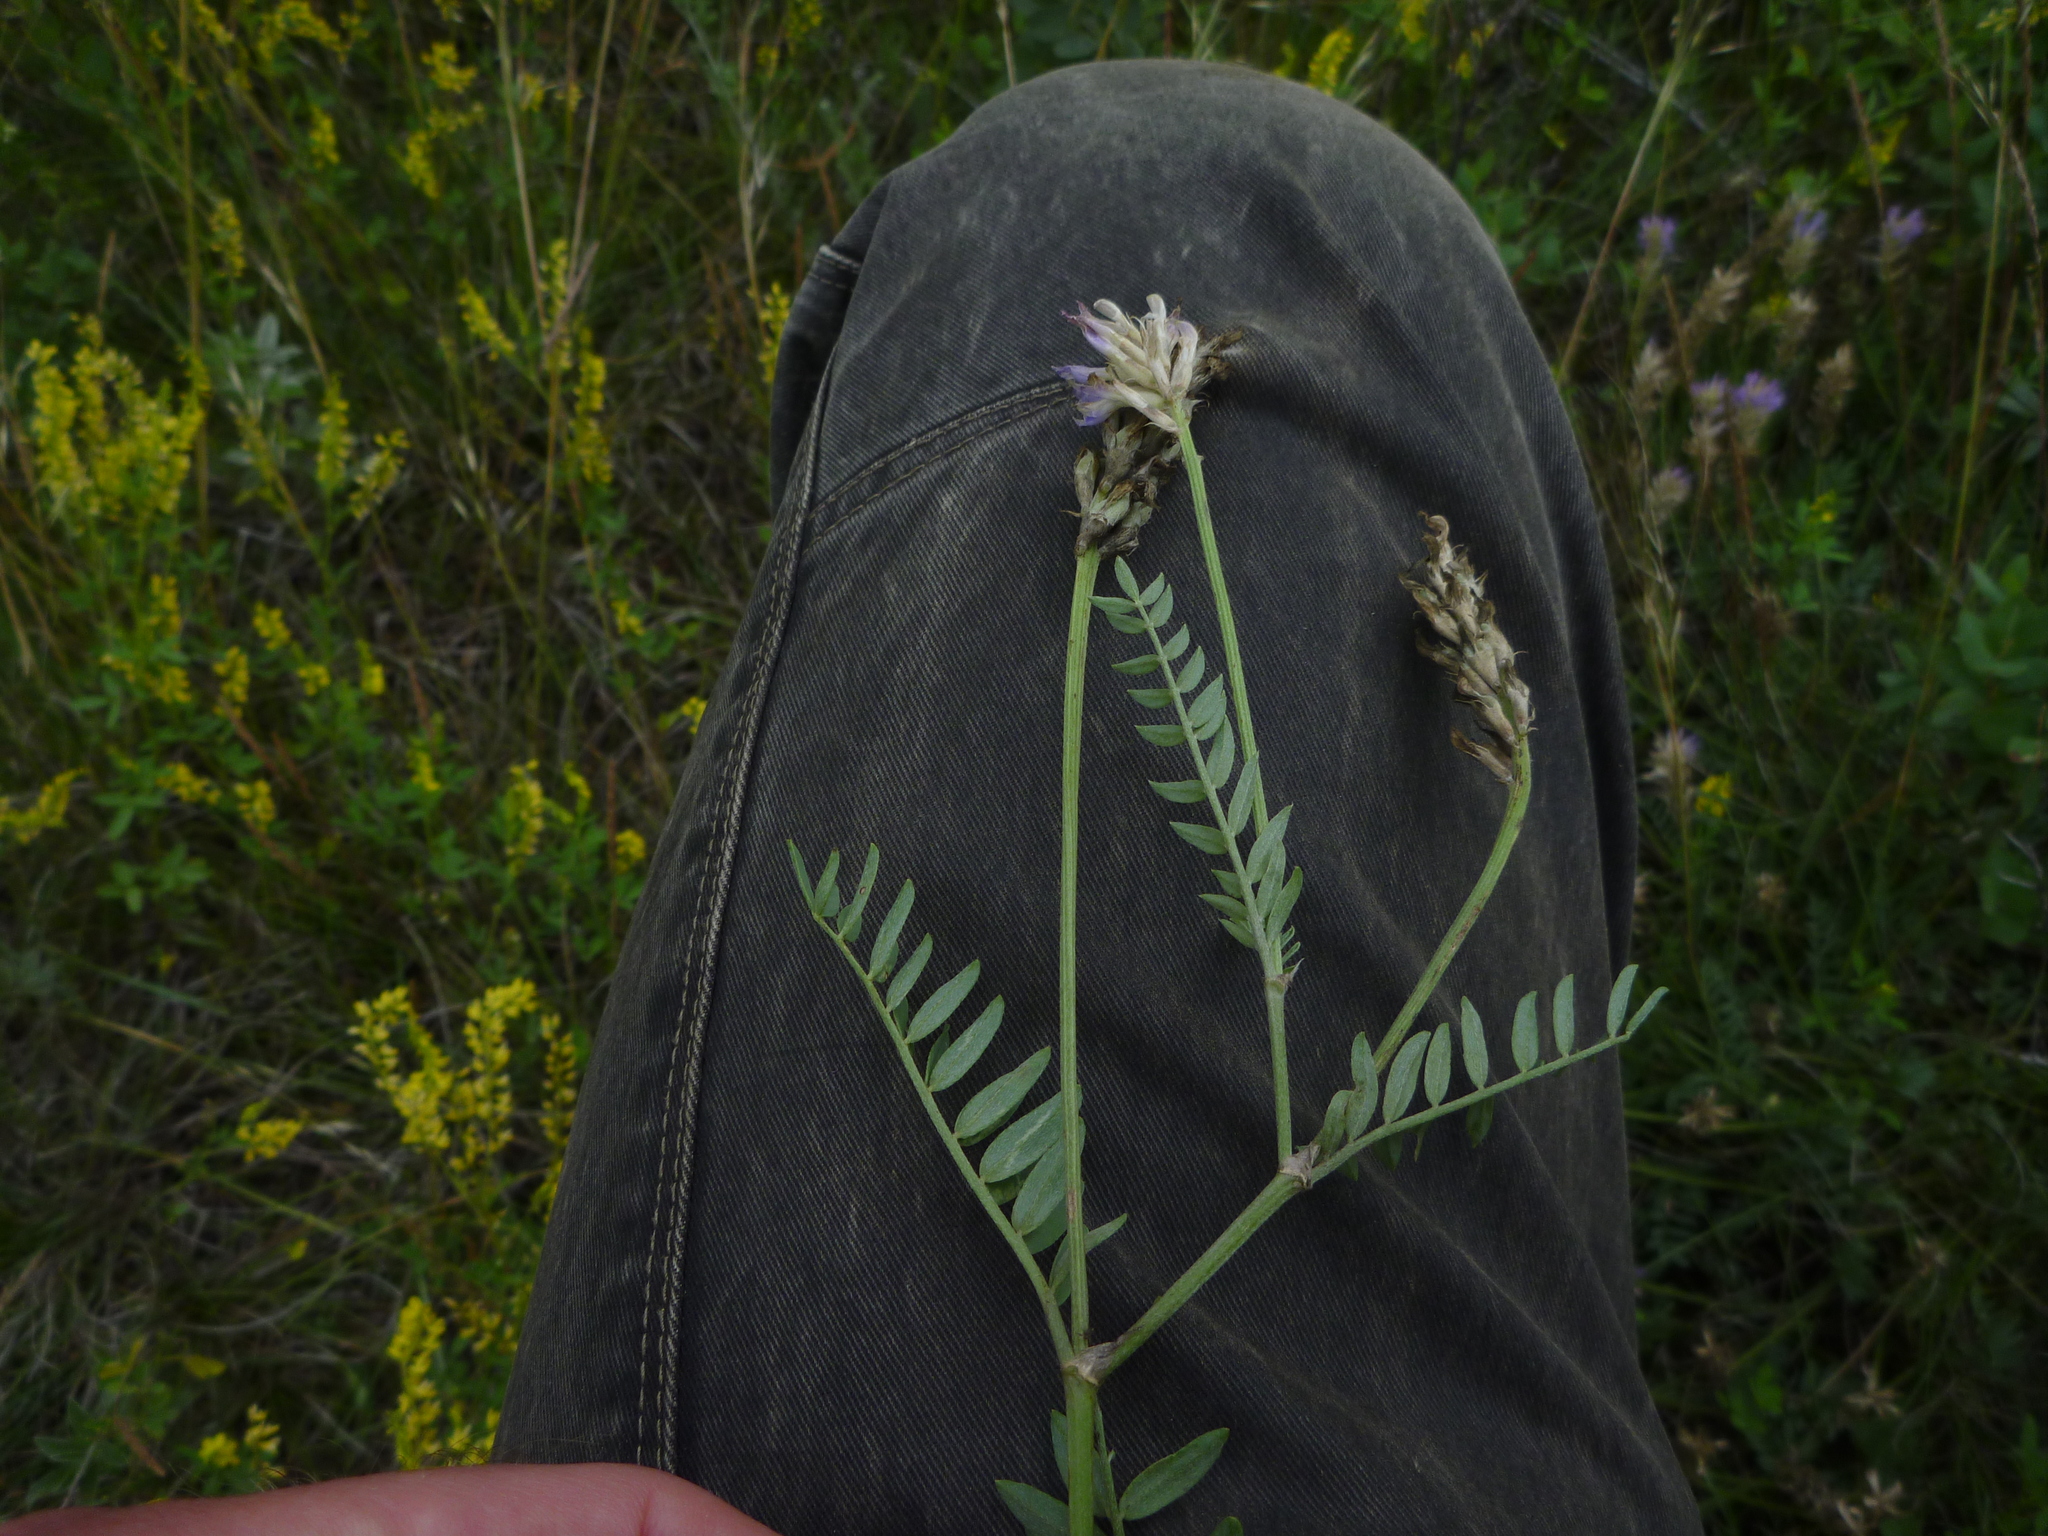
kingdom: Plantae
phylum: Tracheophyta
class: Magnoliopsida
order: Fabales
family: Fabaceae
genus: Astragalus
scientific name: Astragalus laxmannii
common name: Laxmann's milk-vetch
